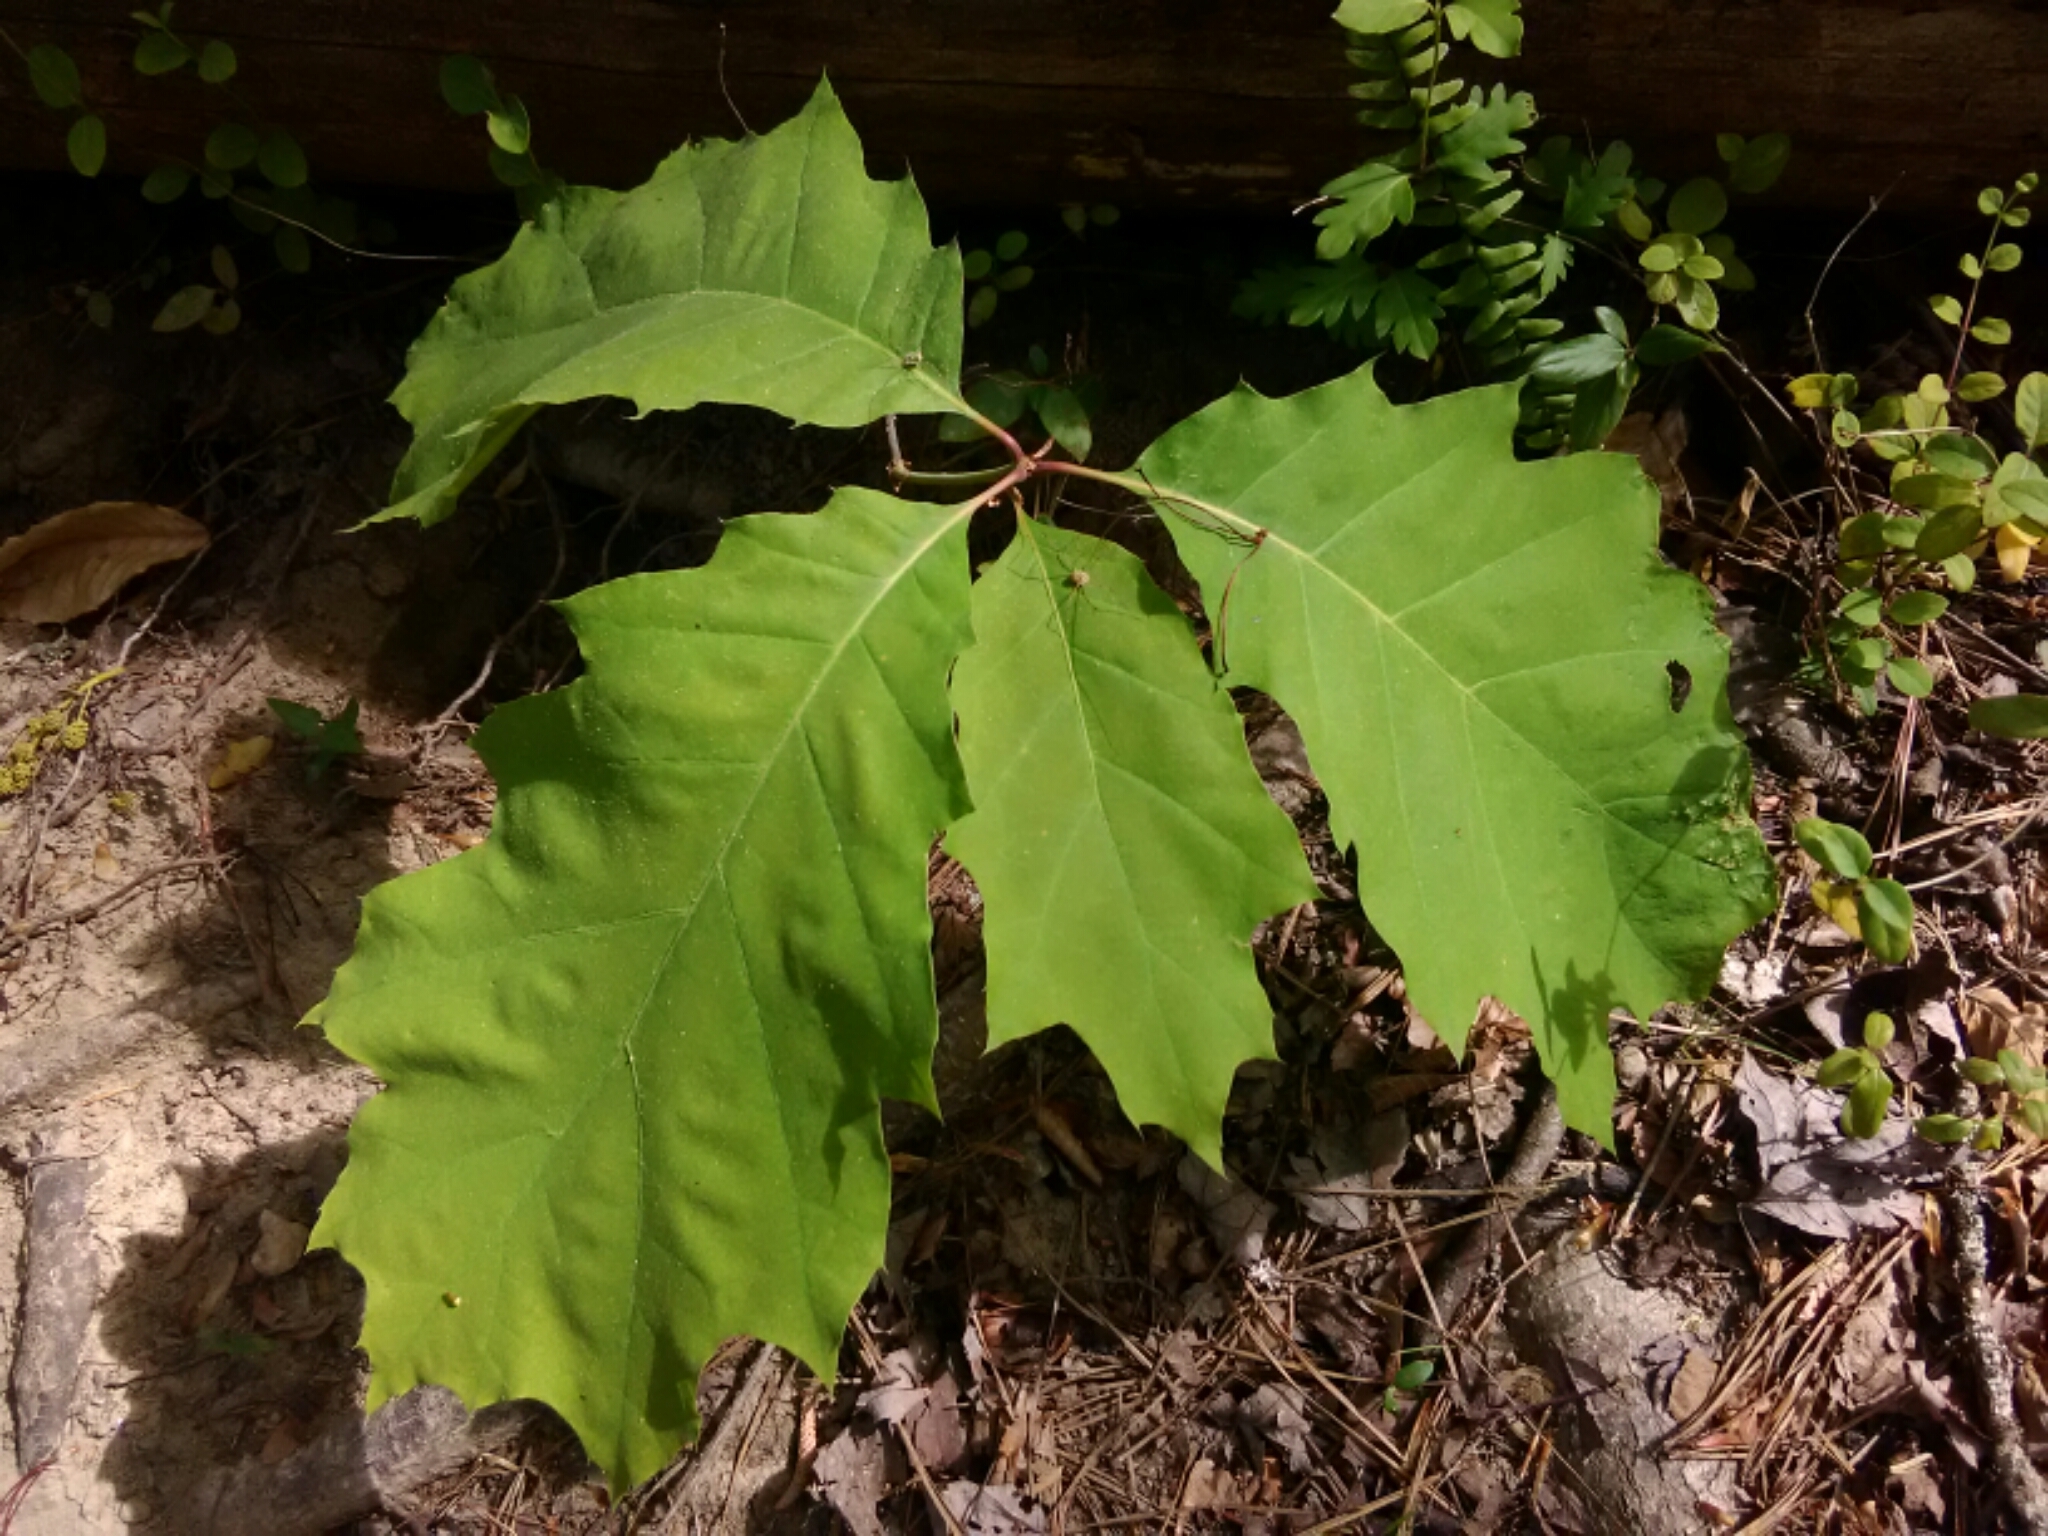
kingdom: Plantae
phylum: Tracheophyta
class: Magnoliopsida
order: Fagales
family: Fagaceae
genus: Quercus
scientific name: Quercus rubra
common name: Red oak
